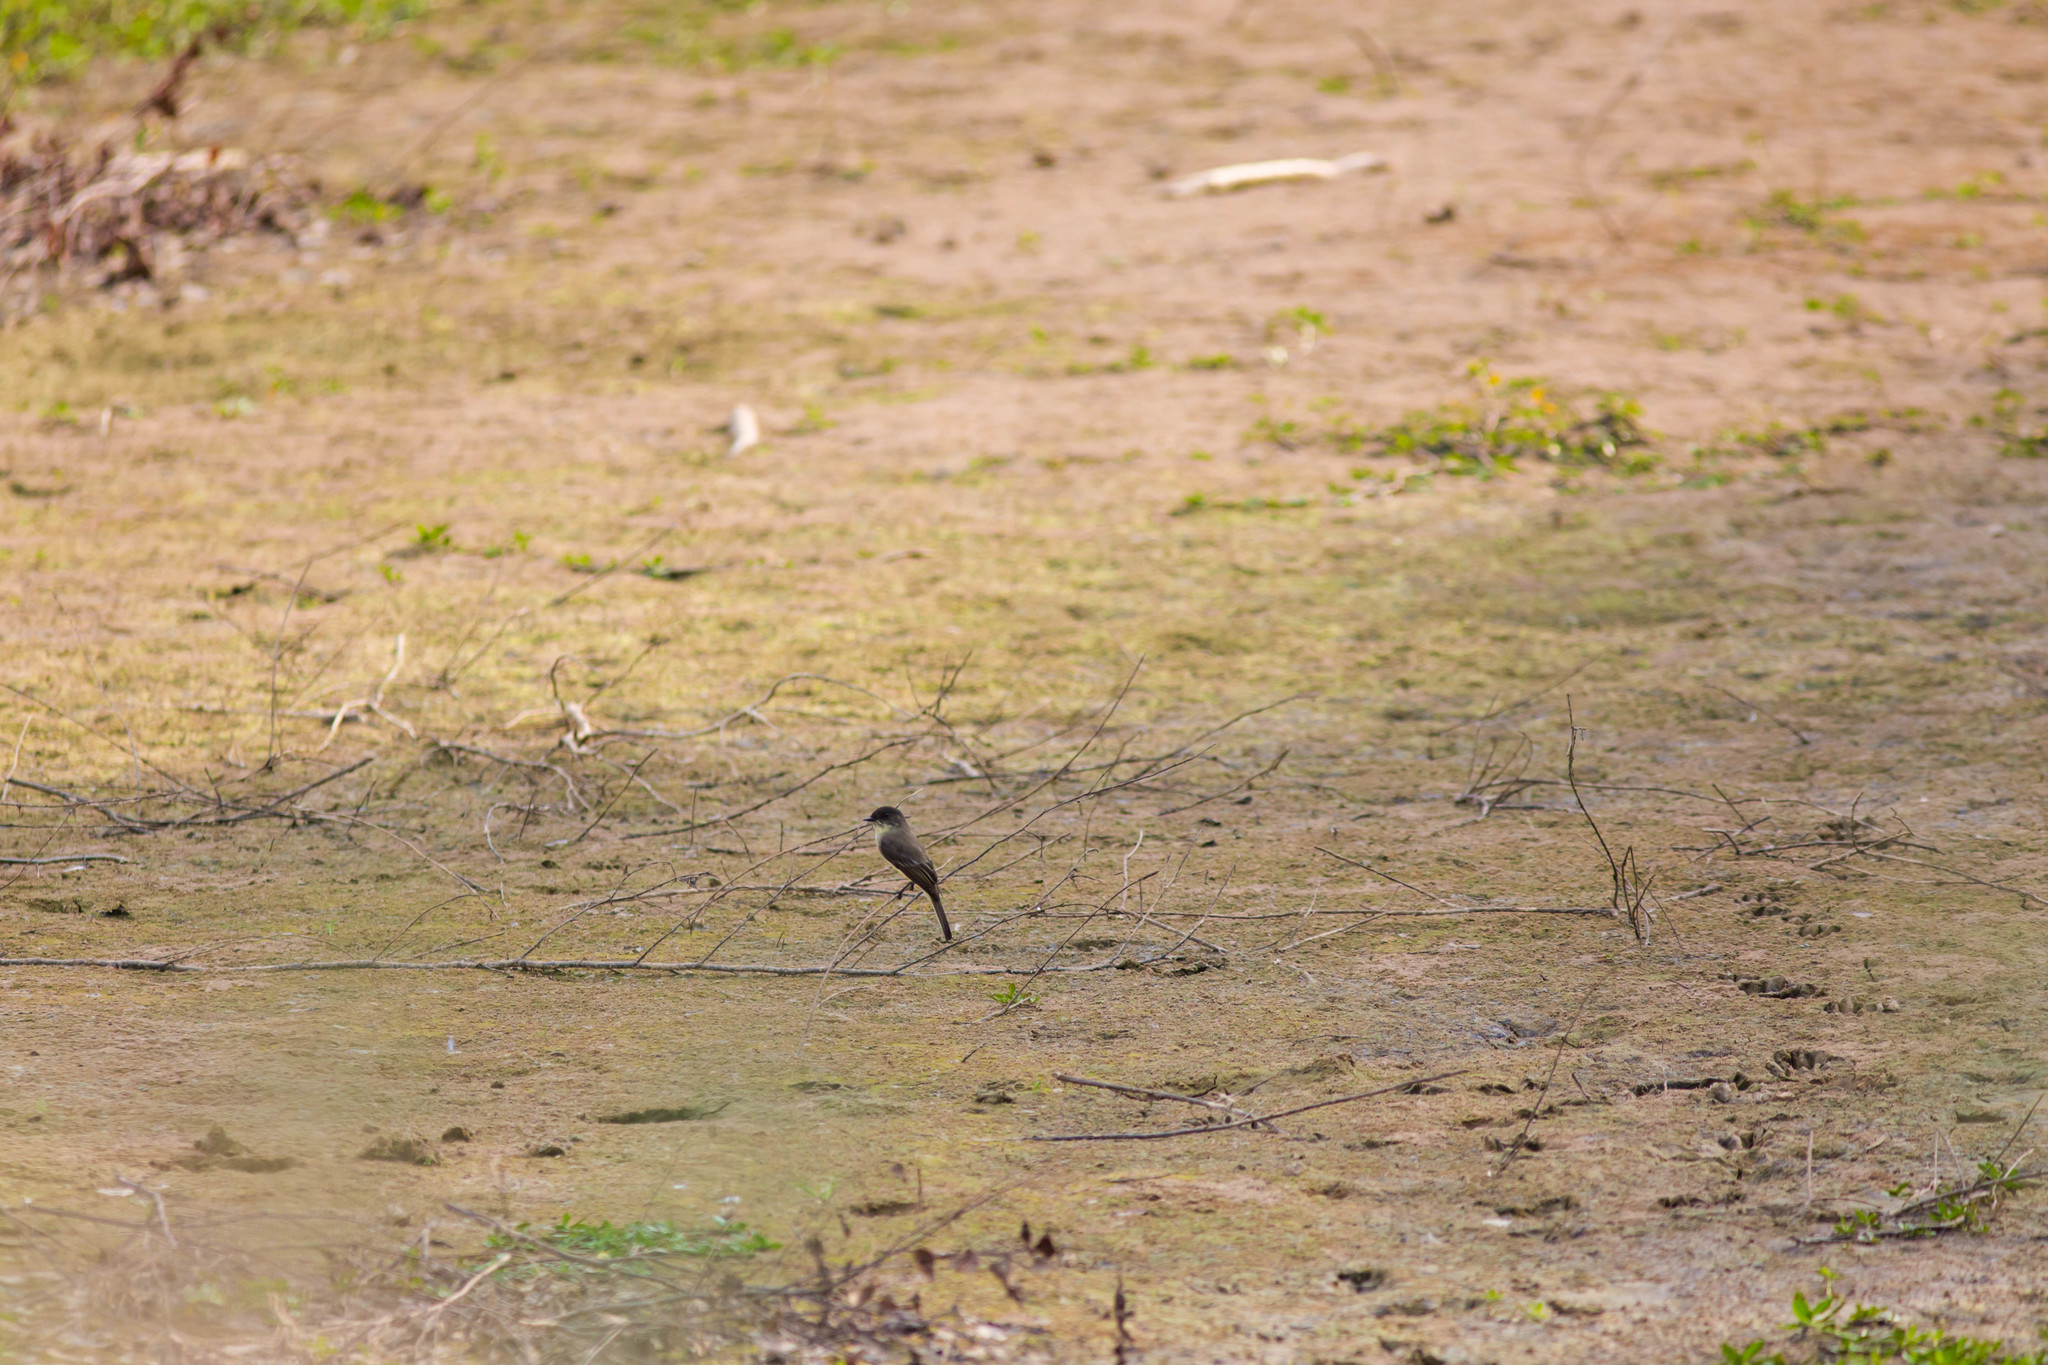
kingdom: Animalia
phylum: Chordata
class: Aves
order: Passeriformes
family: Tyrannidae
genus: Sayornis
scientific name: Sayornis phoebe
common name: Eastern phoebe
